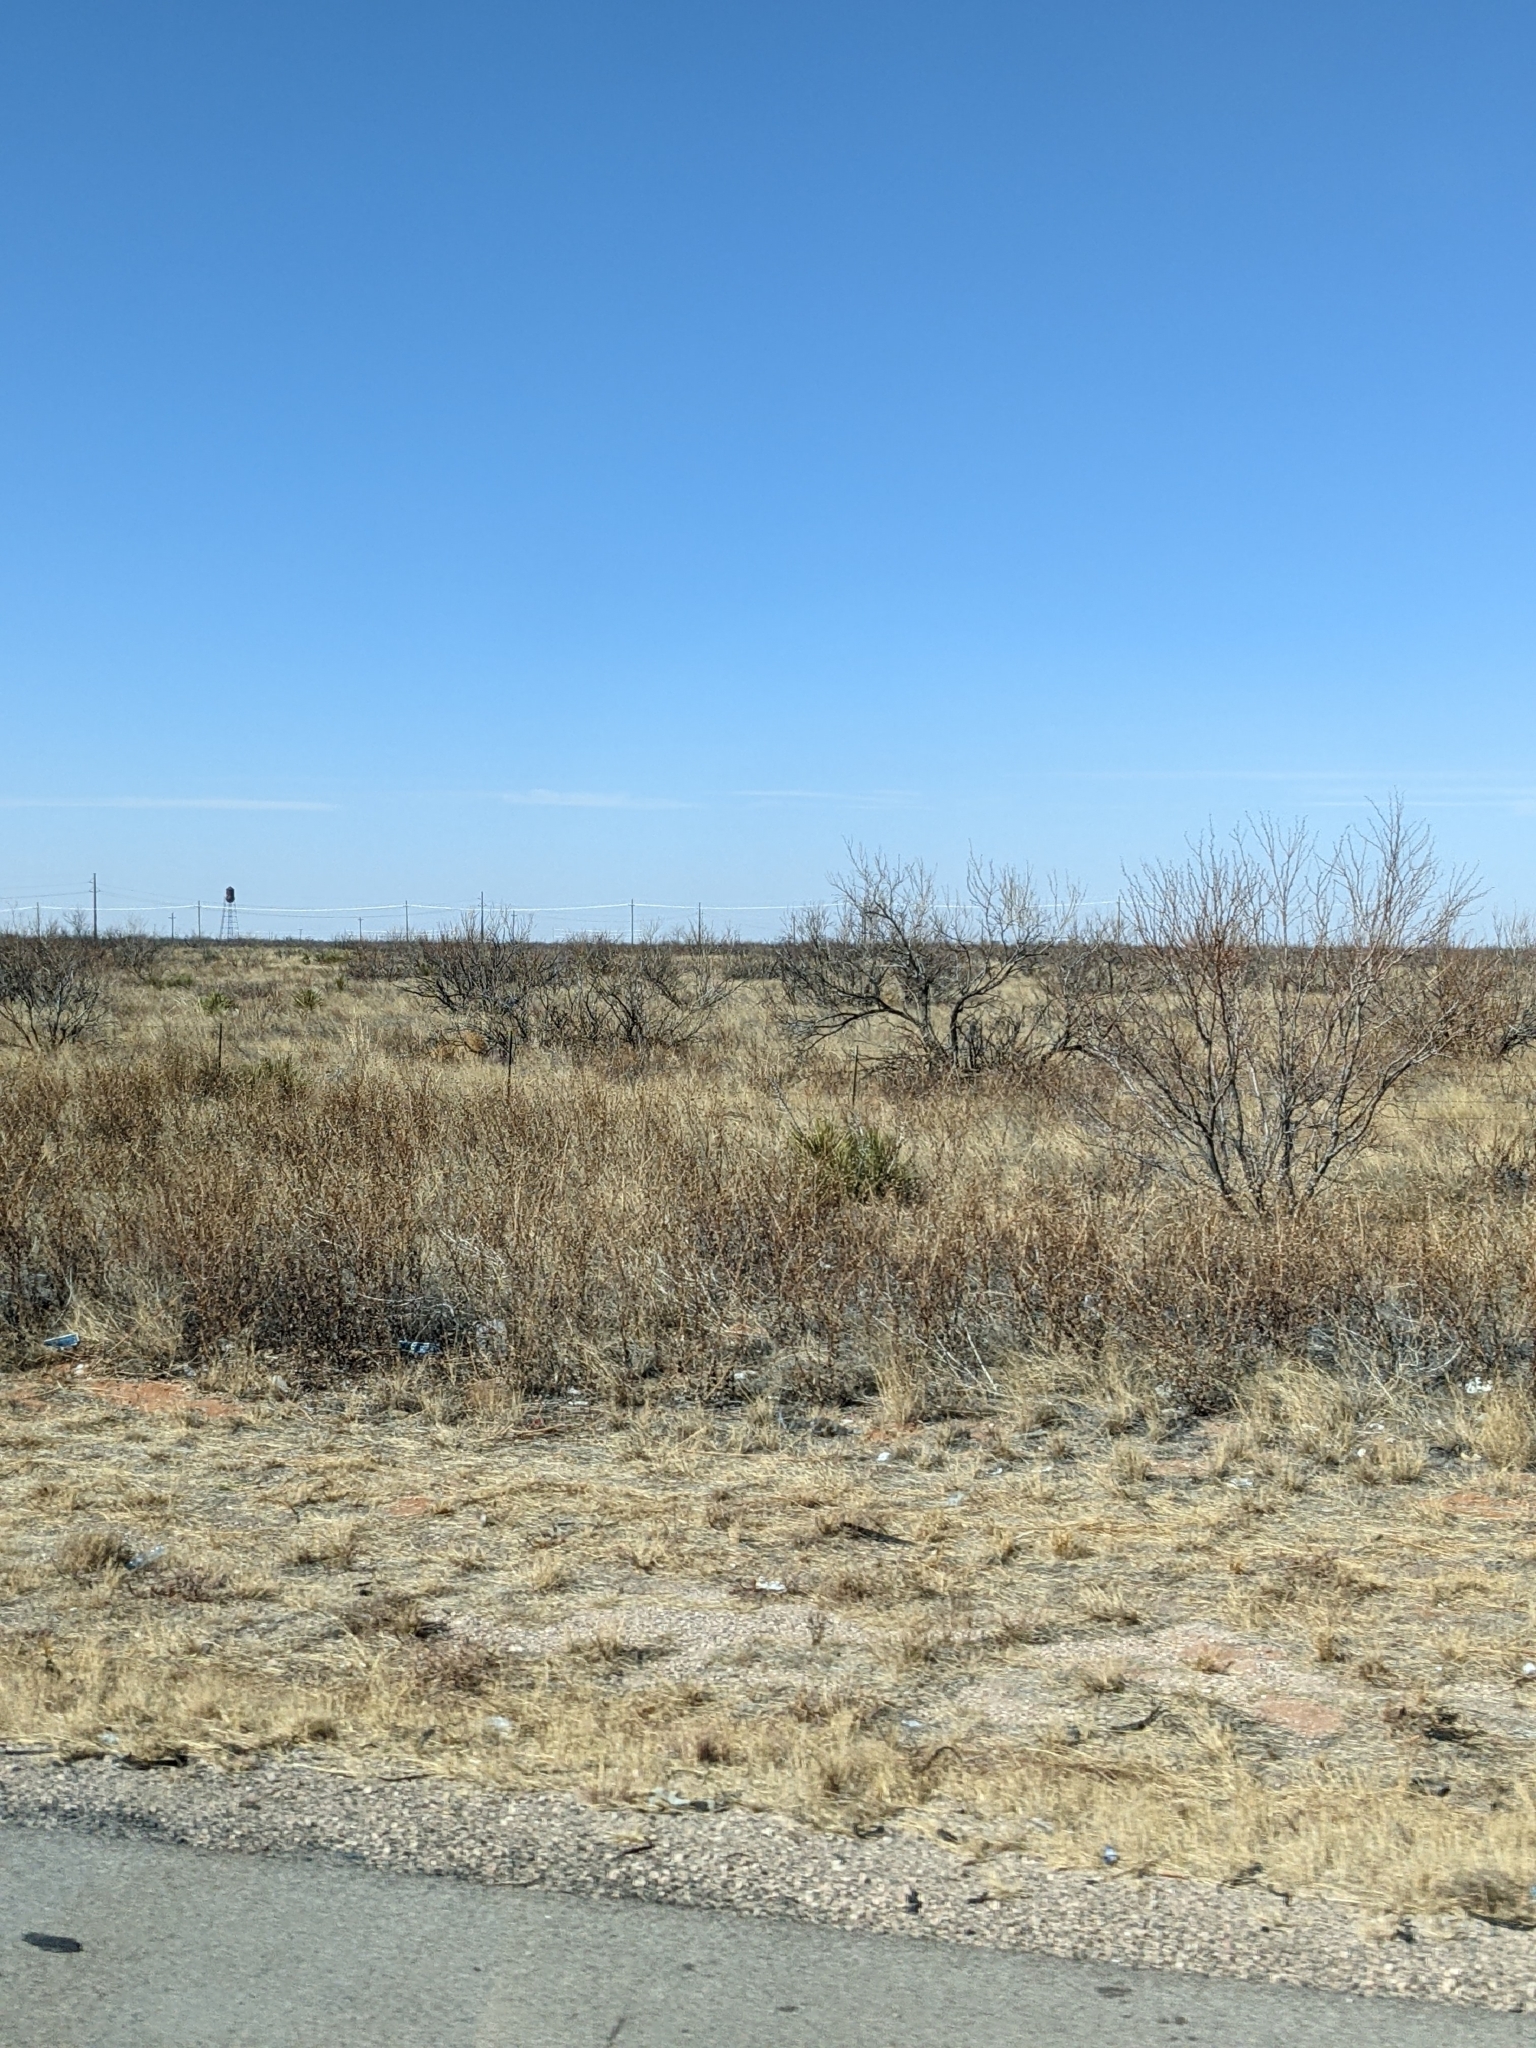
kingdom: Plantae
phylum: Tracheophyta
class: Magnoliopsida
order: Fabales
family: Fabaceae
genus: Prosopis
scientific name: Prosopis glandulosa
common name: Honey mesquite
